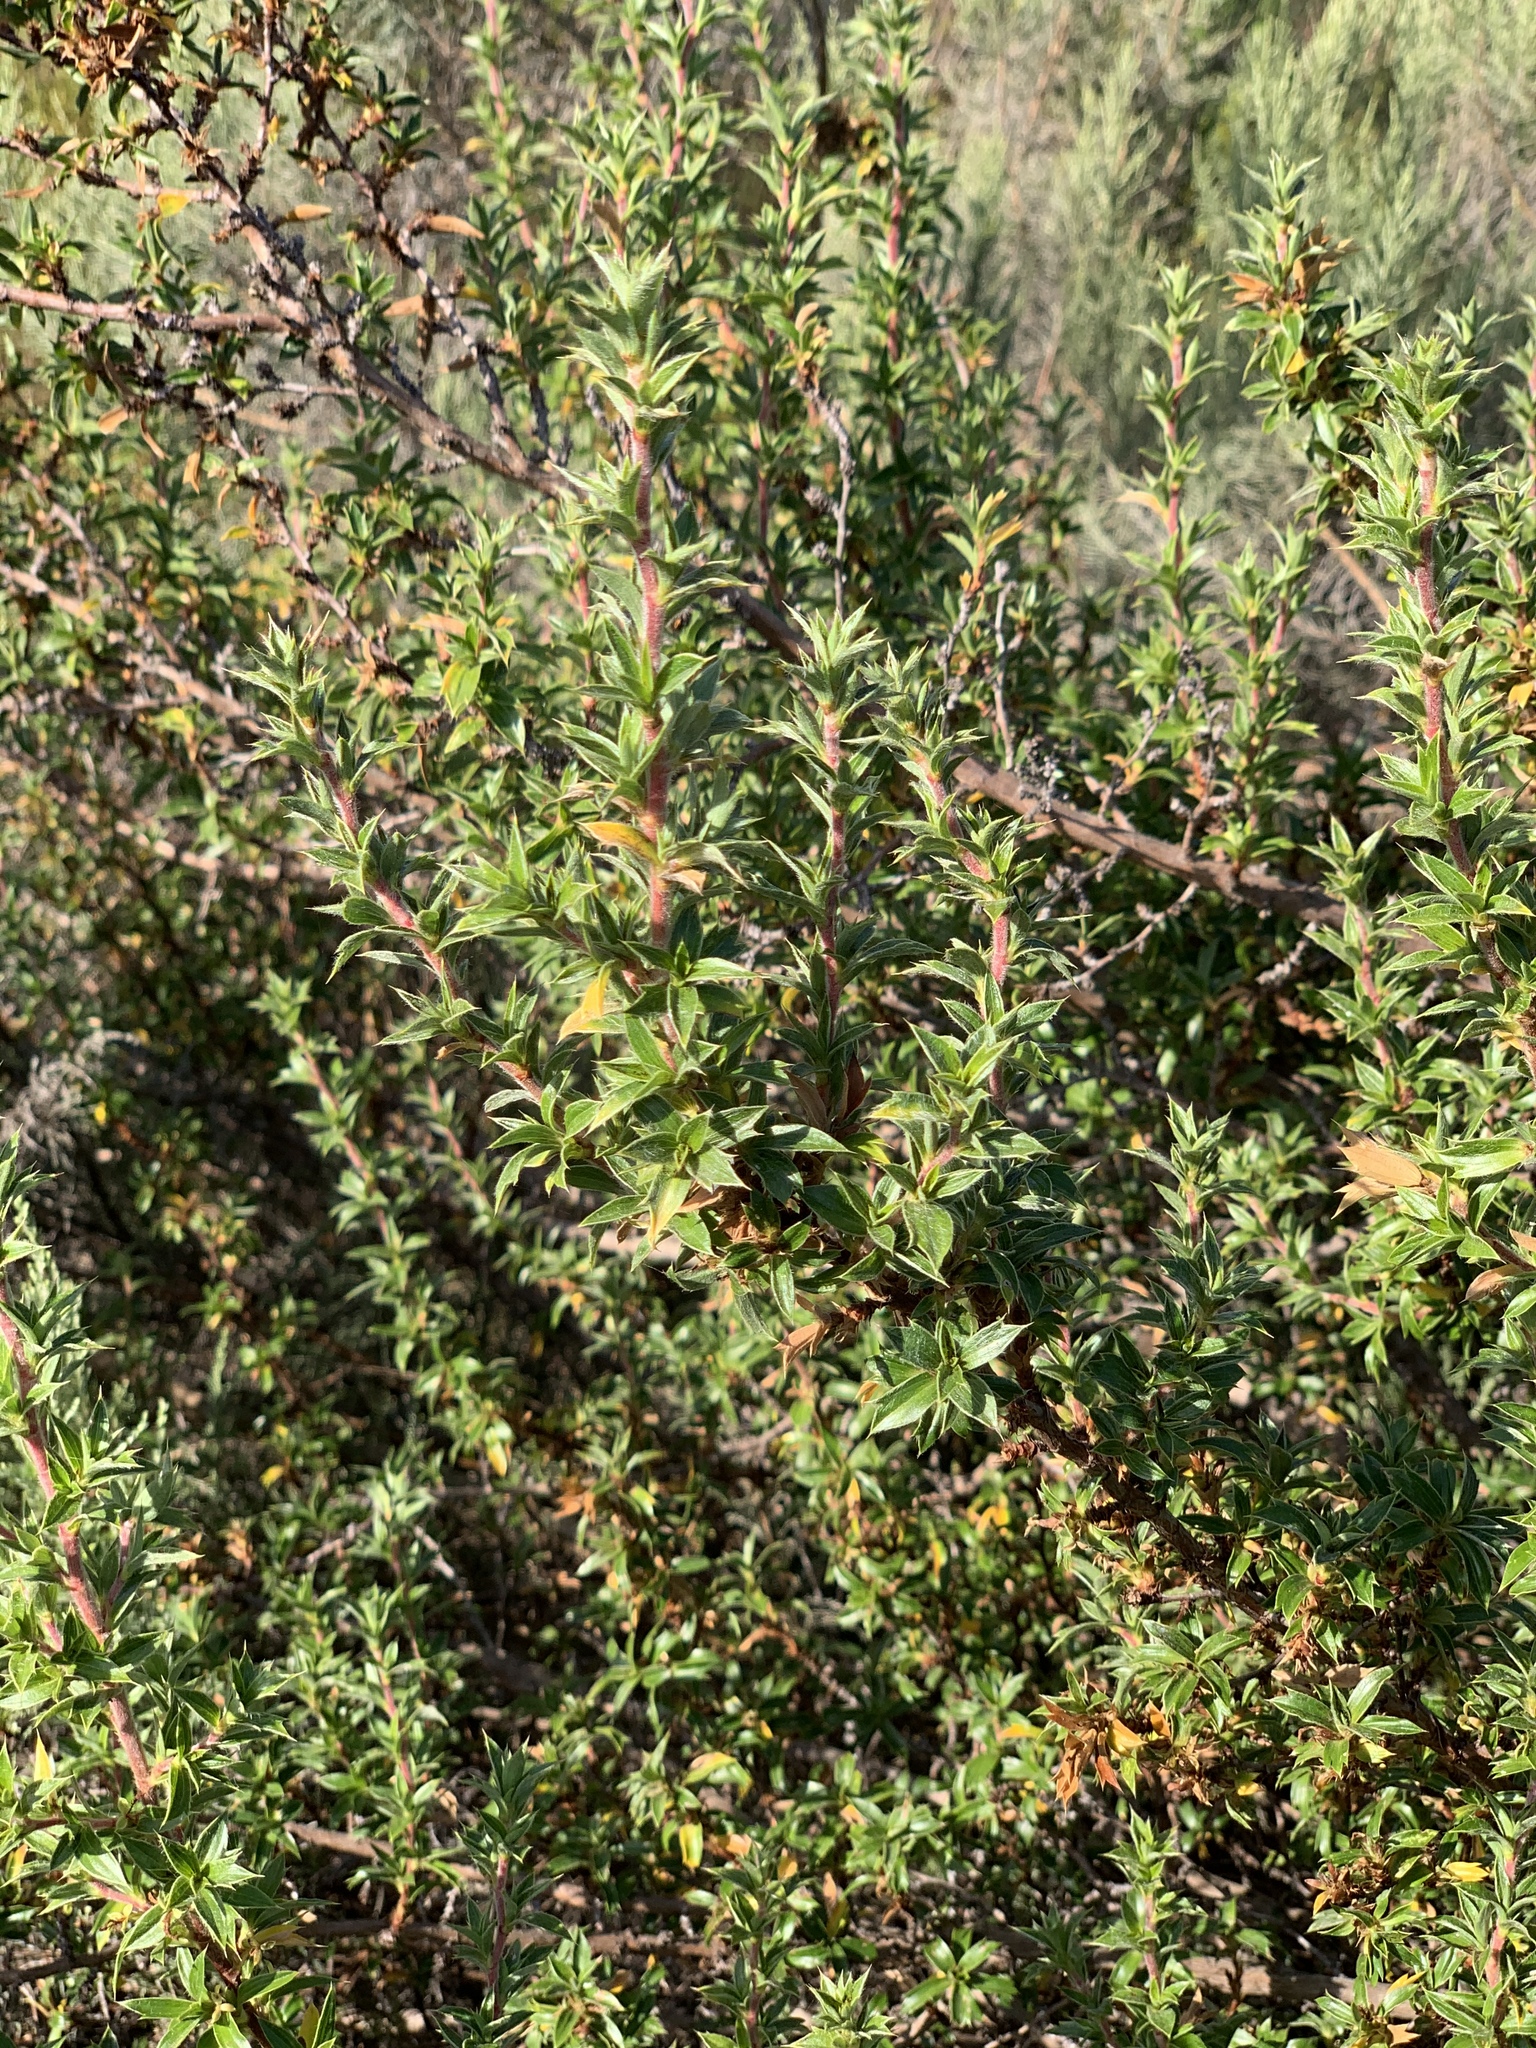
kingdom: Plantae
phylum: Tracheophyta
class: Magnoliopsida
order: Rosales
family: Rosaceae
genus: Cliffortia
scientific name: Cliffortia ruscifolia
